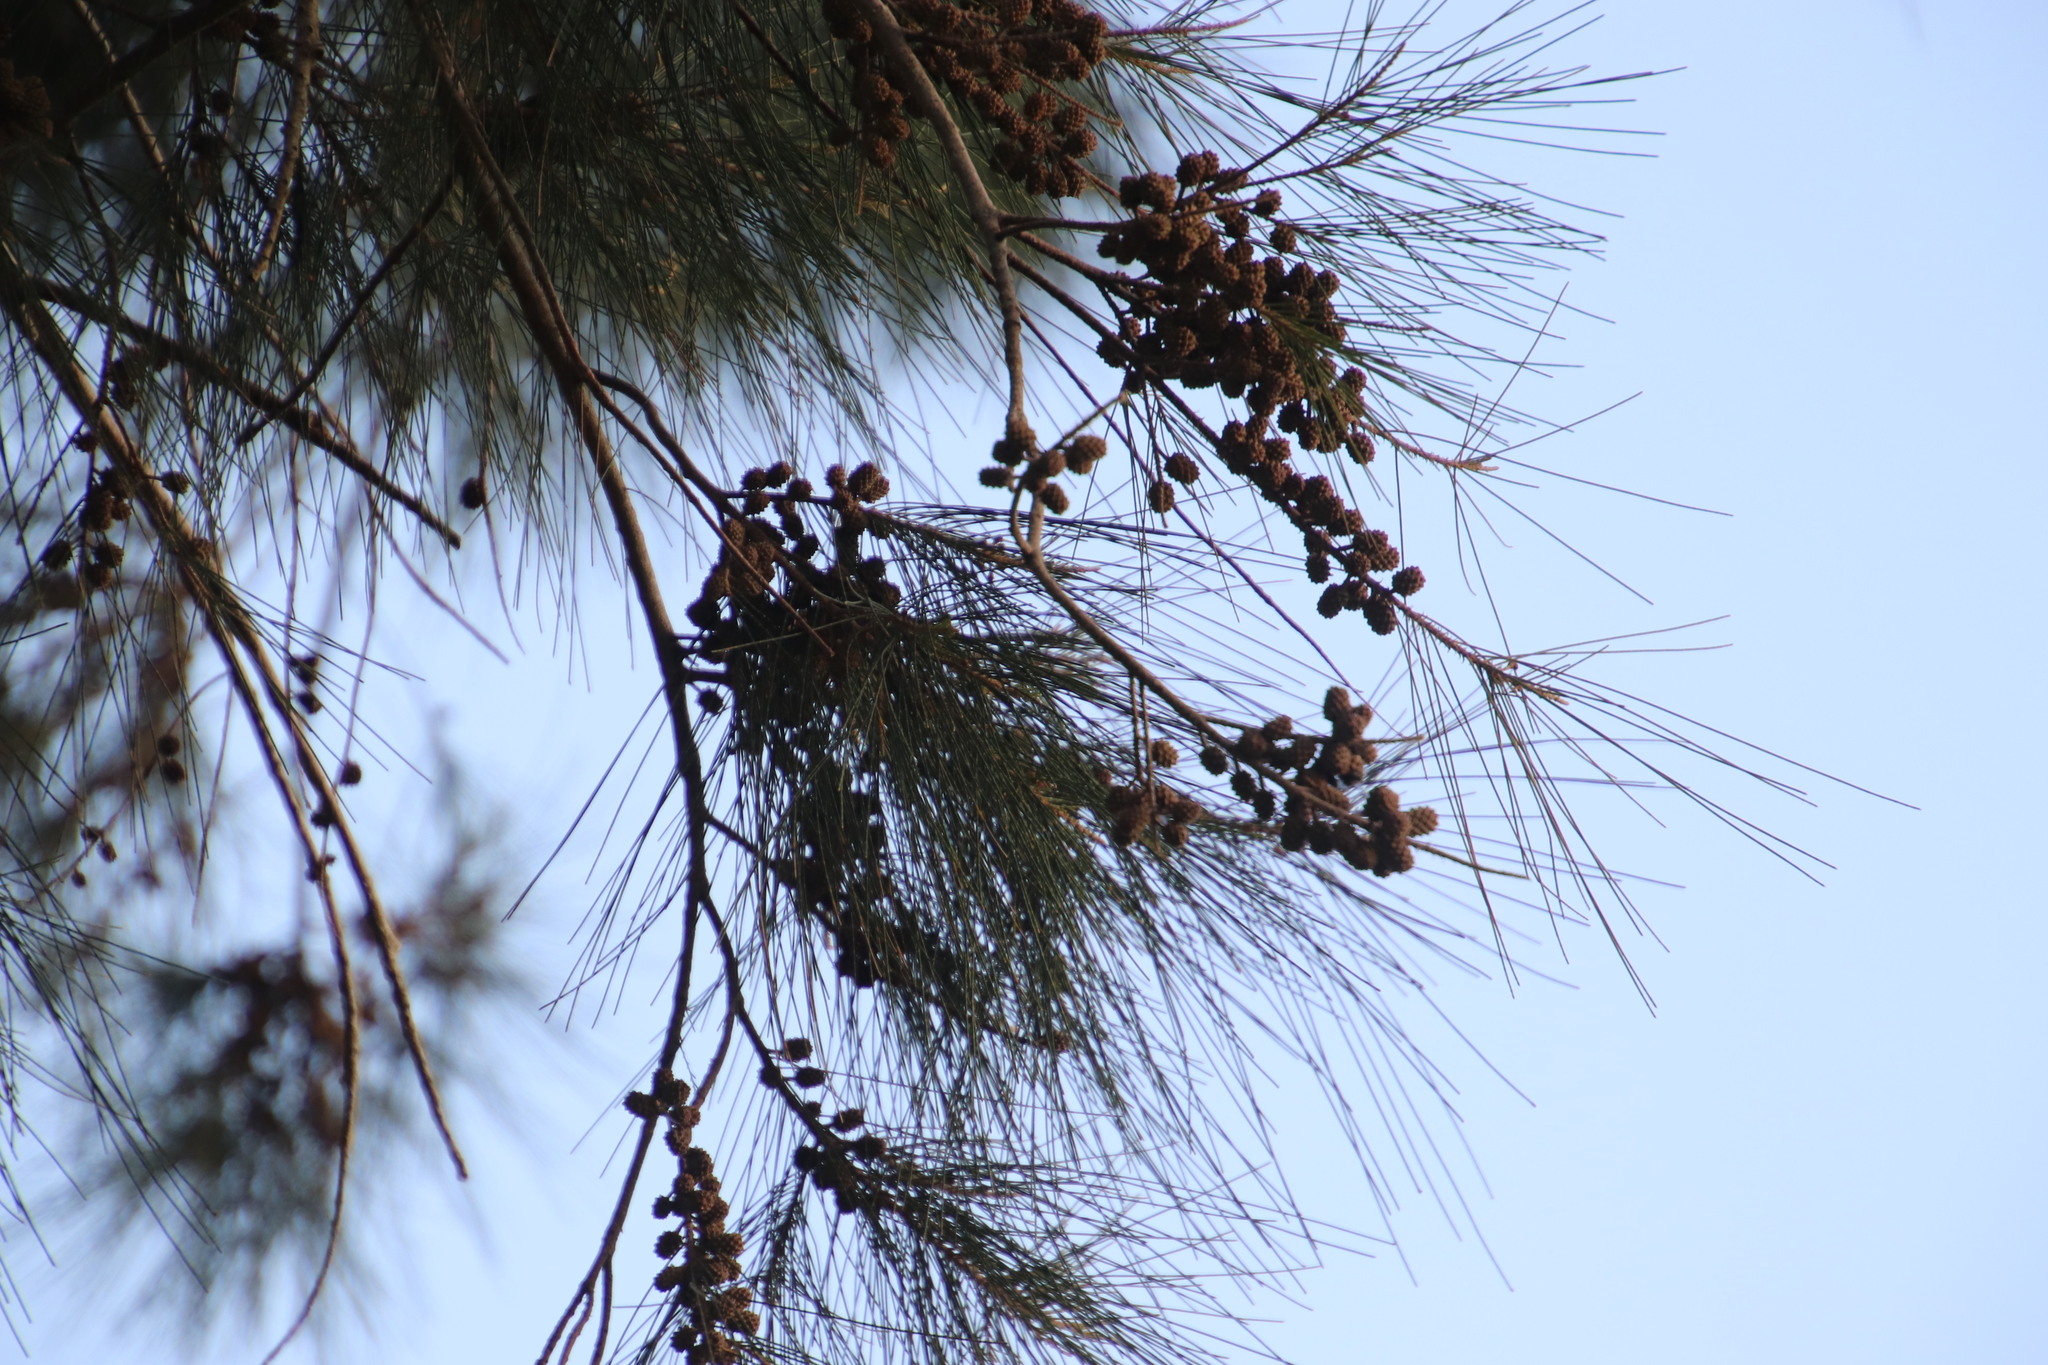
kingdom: Plantae
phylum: Tracheophyta
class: Magnoliopsida
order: Fagales
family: Casuarinaceae
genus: Casuarina
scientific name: Casuarina cunninghamiana
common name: River sheoak
